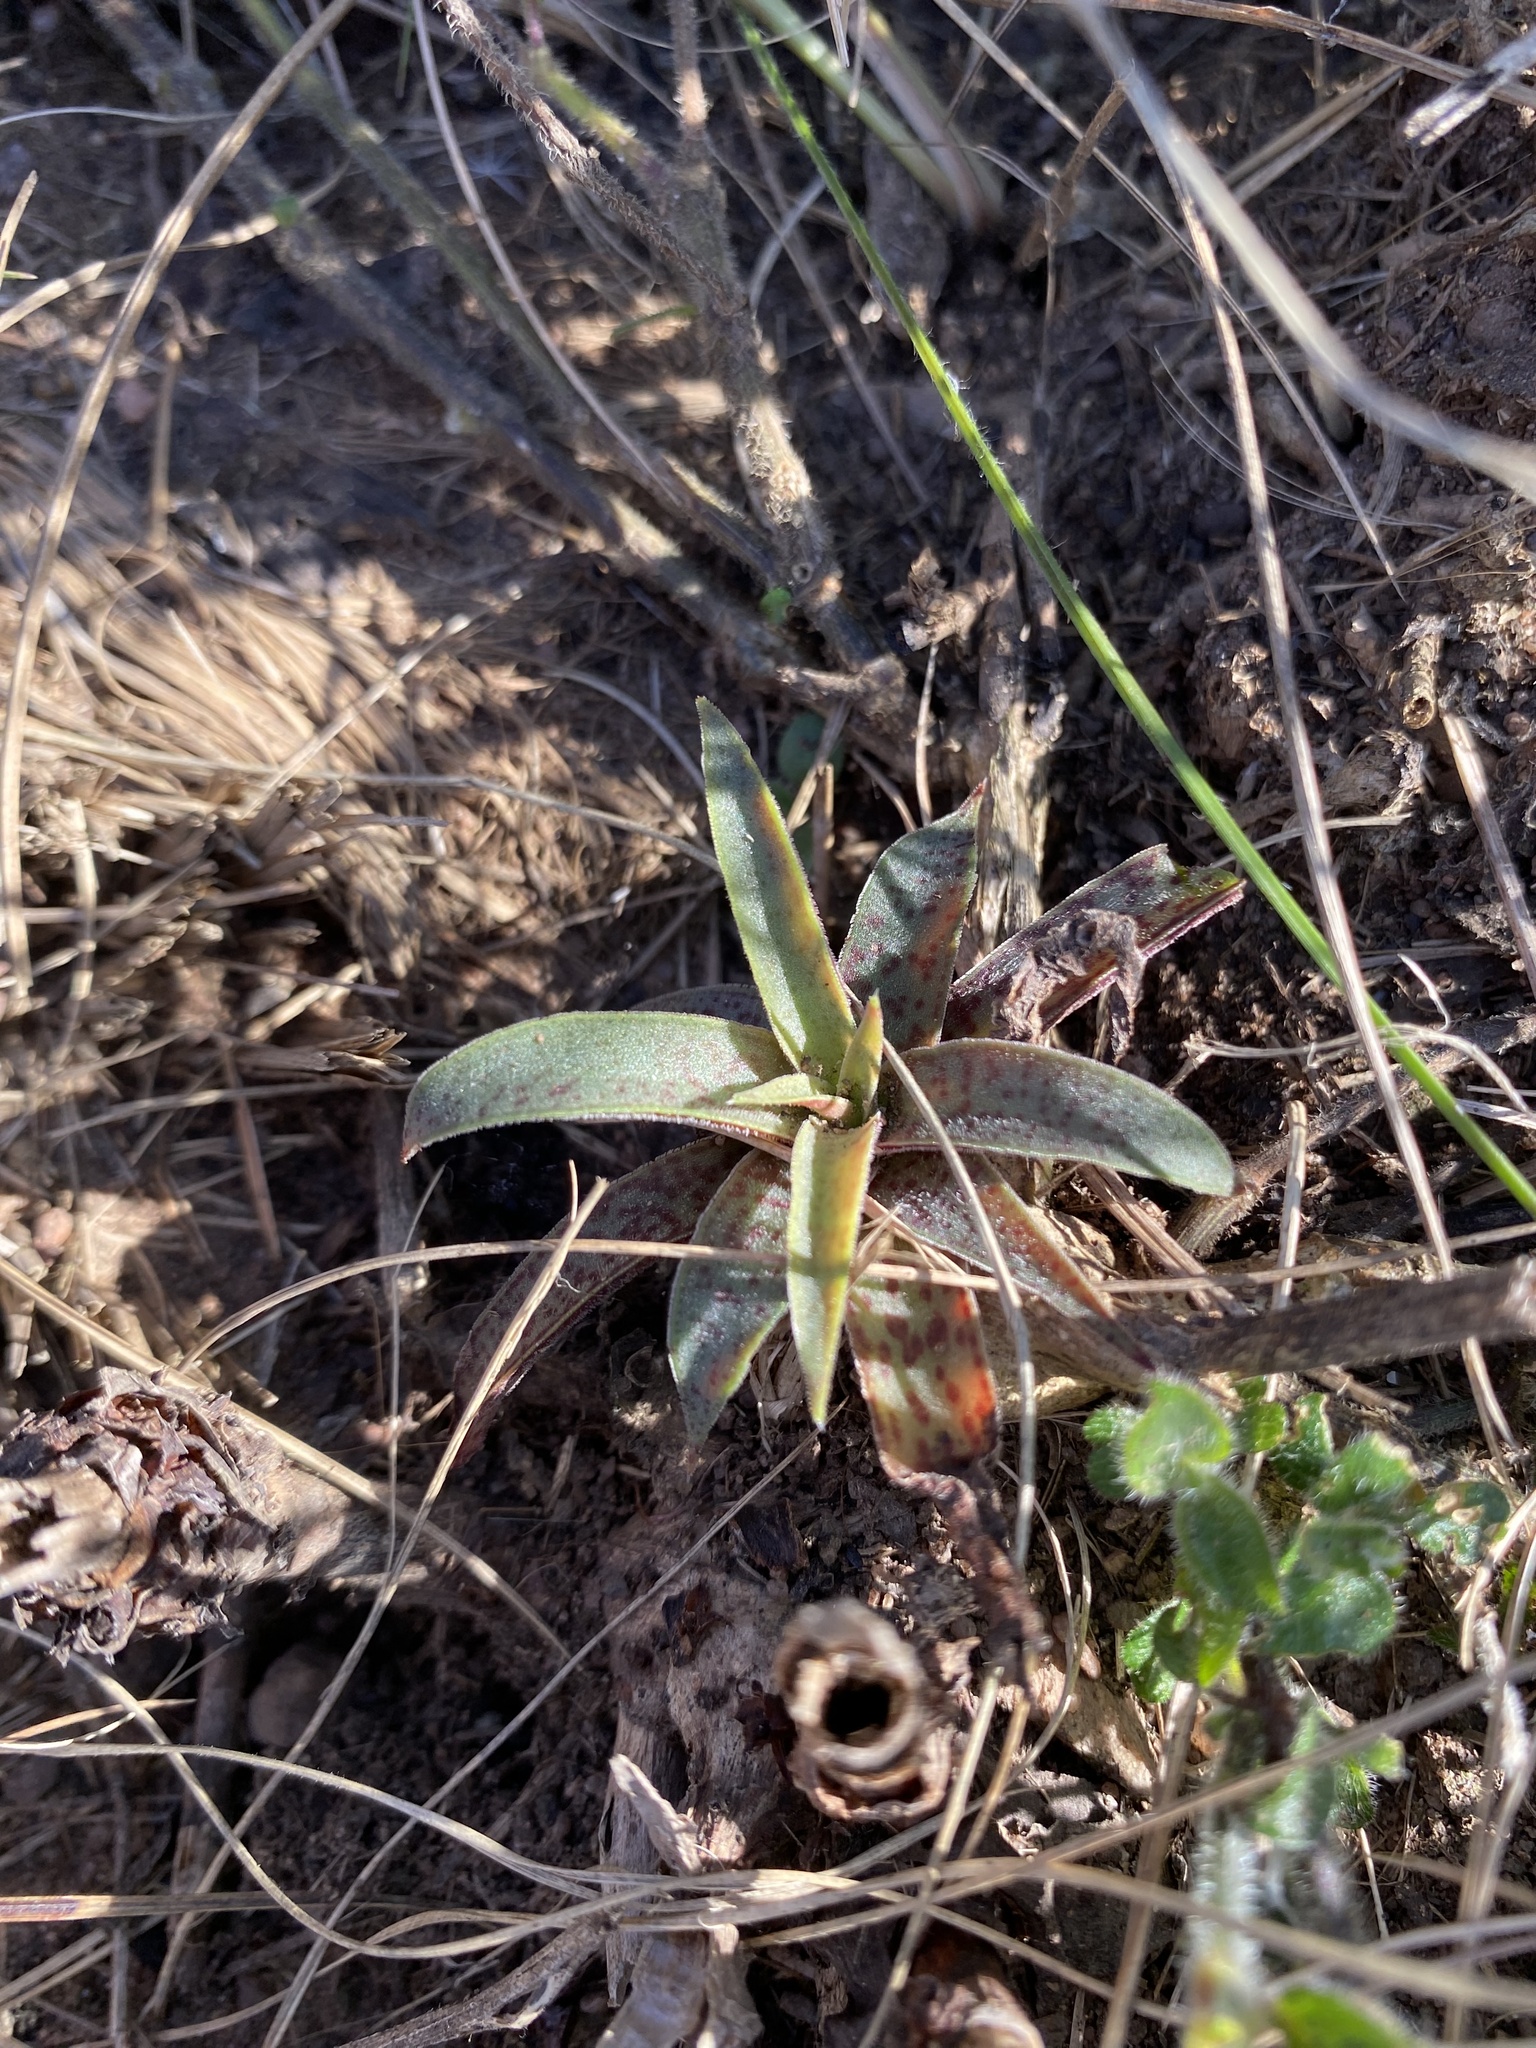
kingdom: Plantae
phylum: Tracheophyta
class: Magnoliopsida
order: Saxifragales
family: Crassulaceae
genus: Crassula
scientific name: Crassula alba
